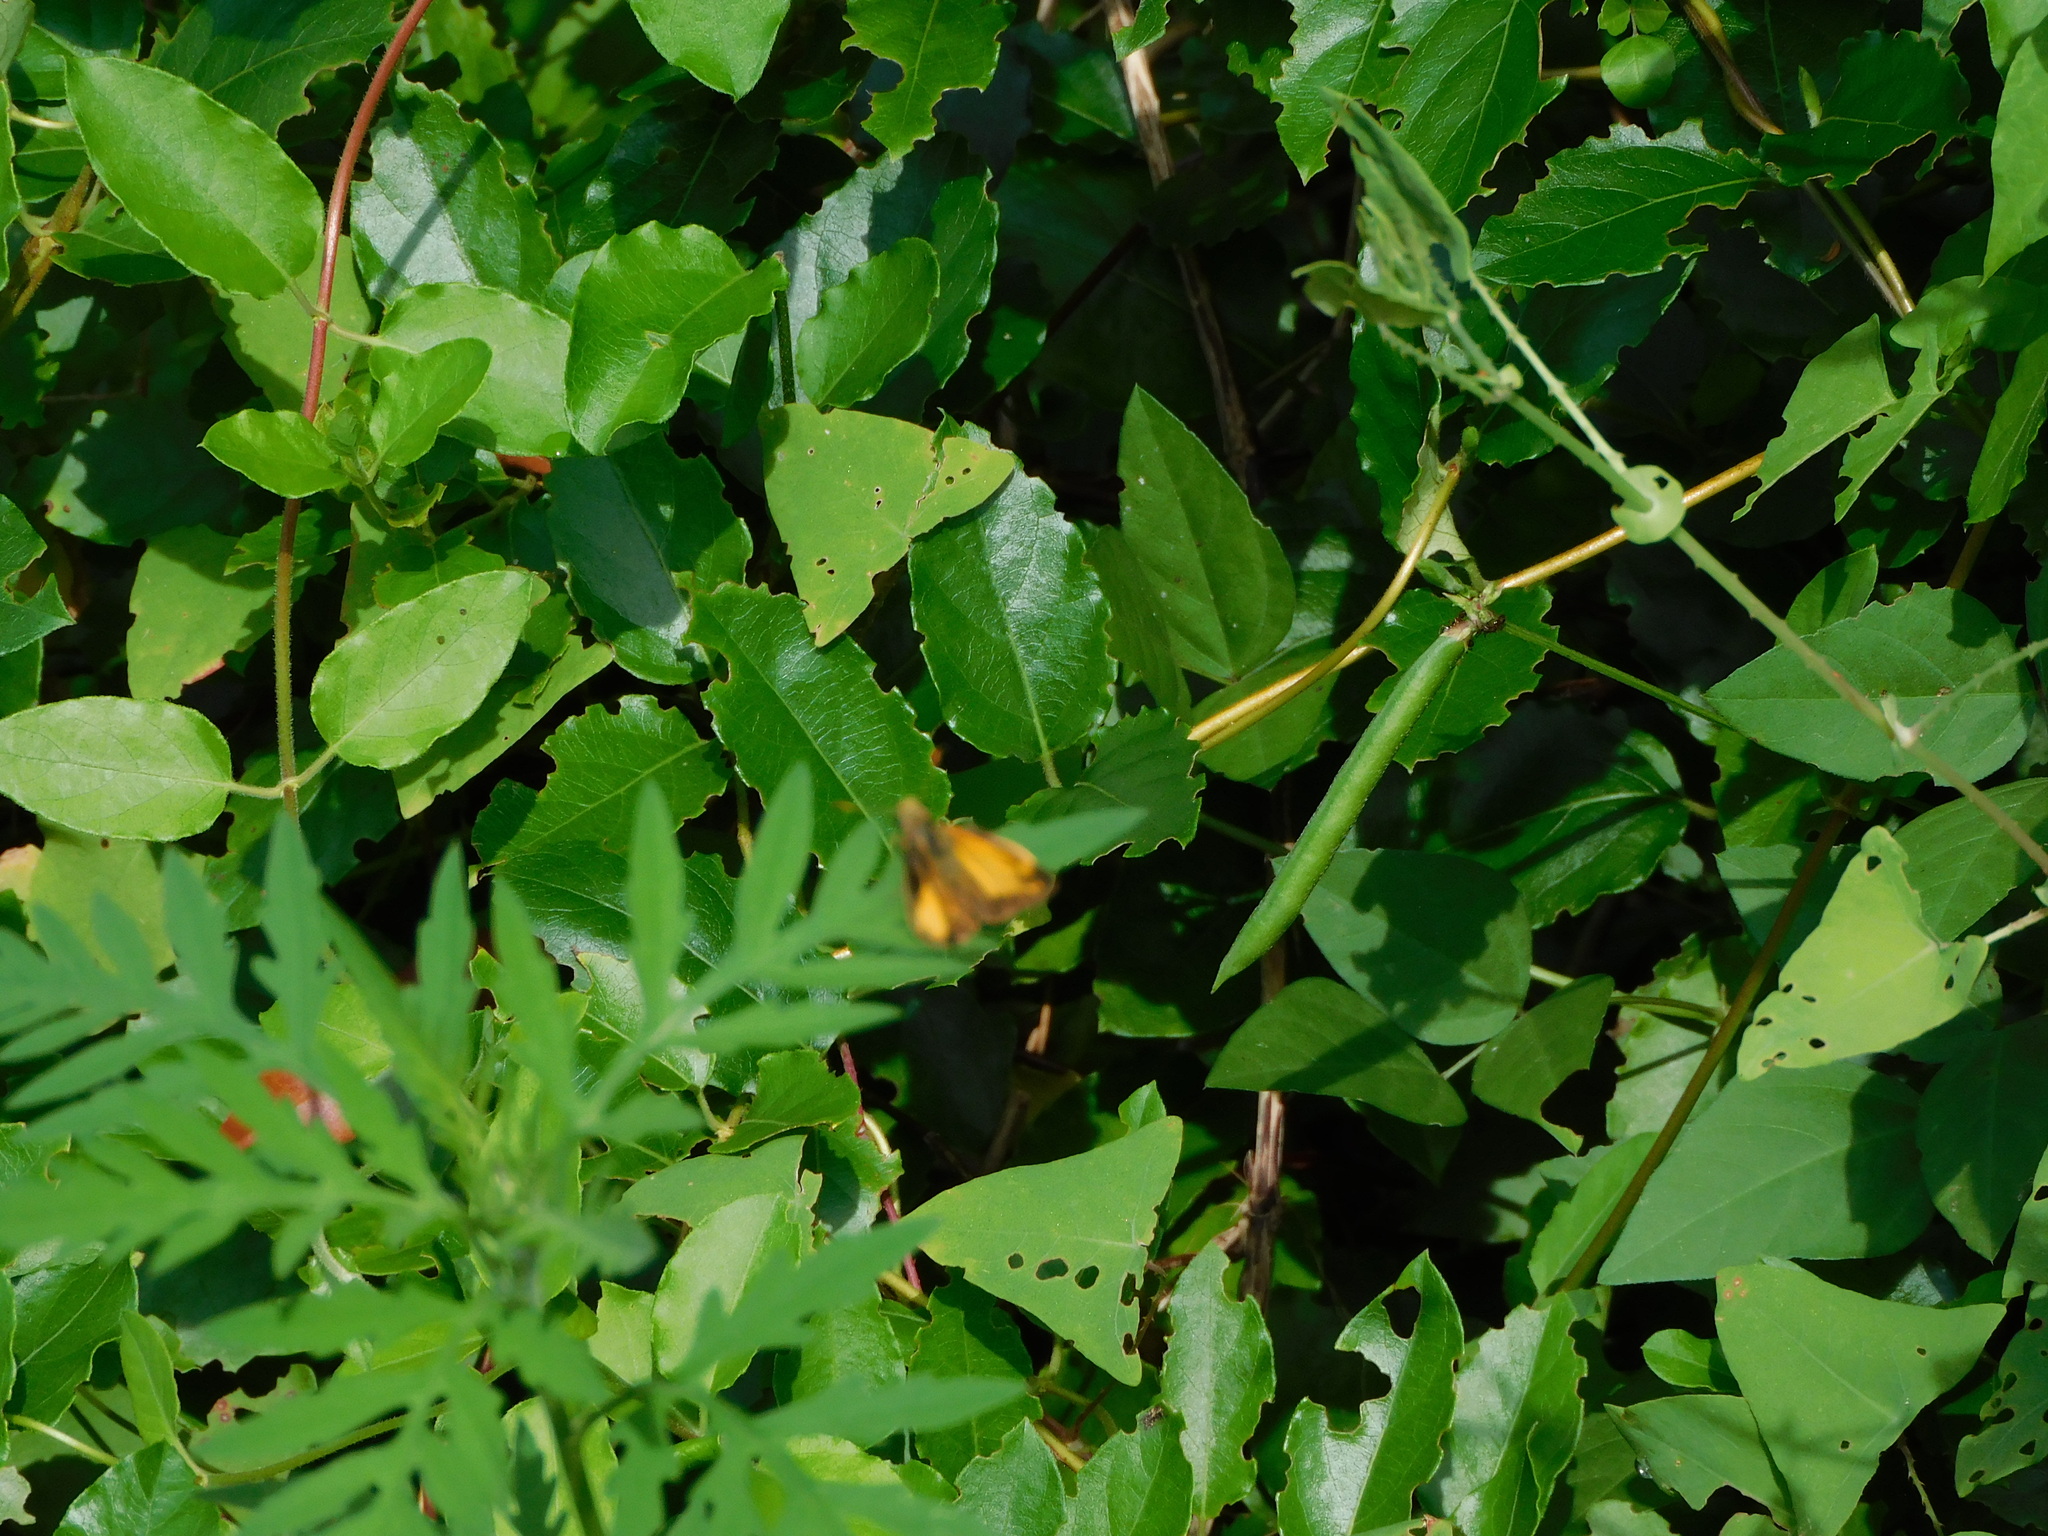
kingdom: Plantae
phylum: Tracheophyta
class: Magnoliopsida
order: Caryophyllales
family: Polygonaceae
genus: Persicaria
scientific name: Persicaria perfoliata
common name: Asiatic tearthumb
